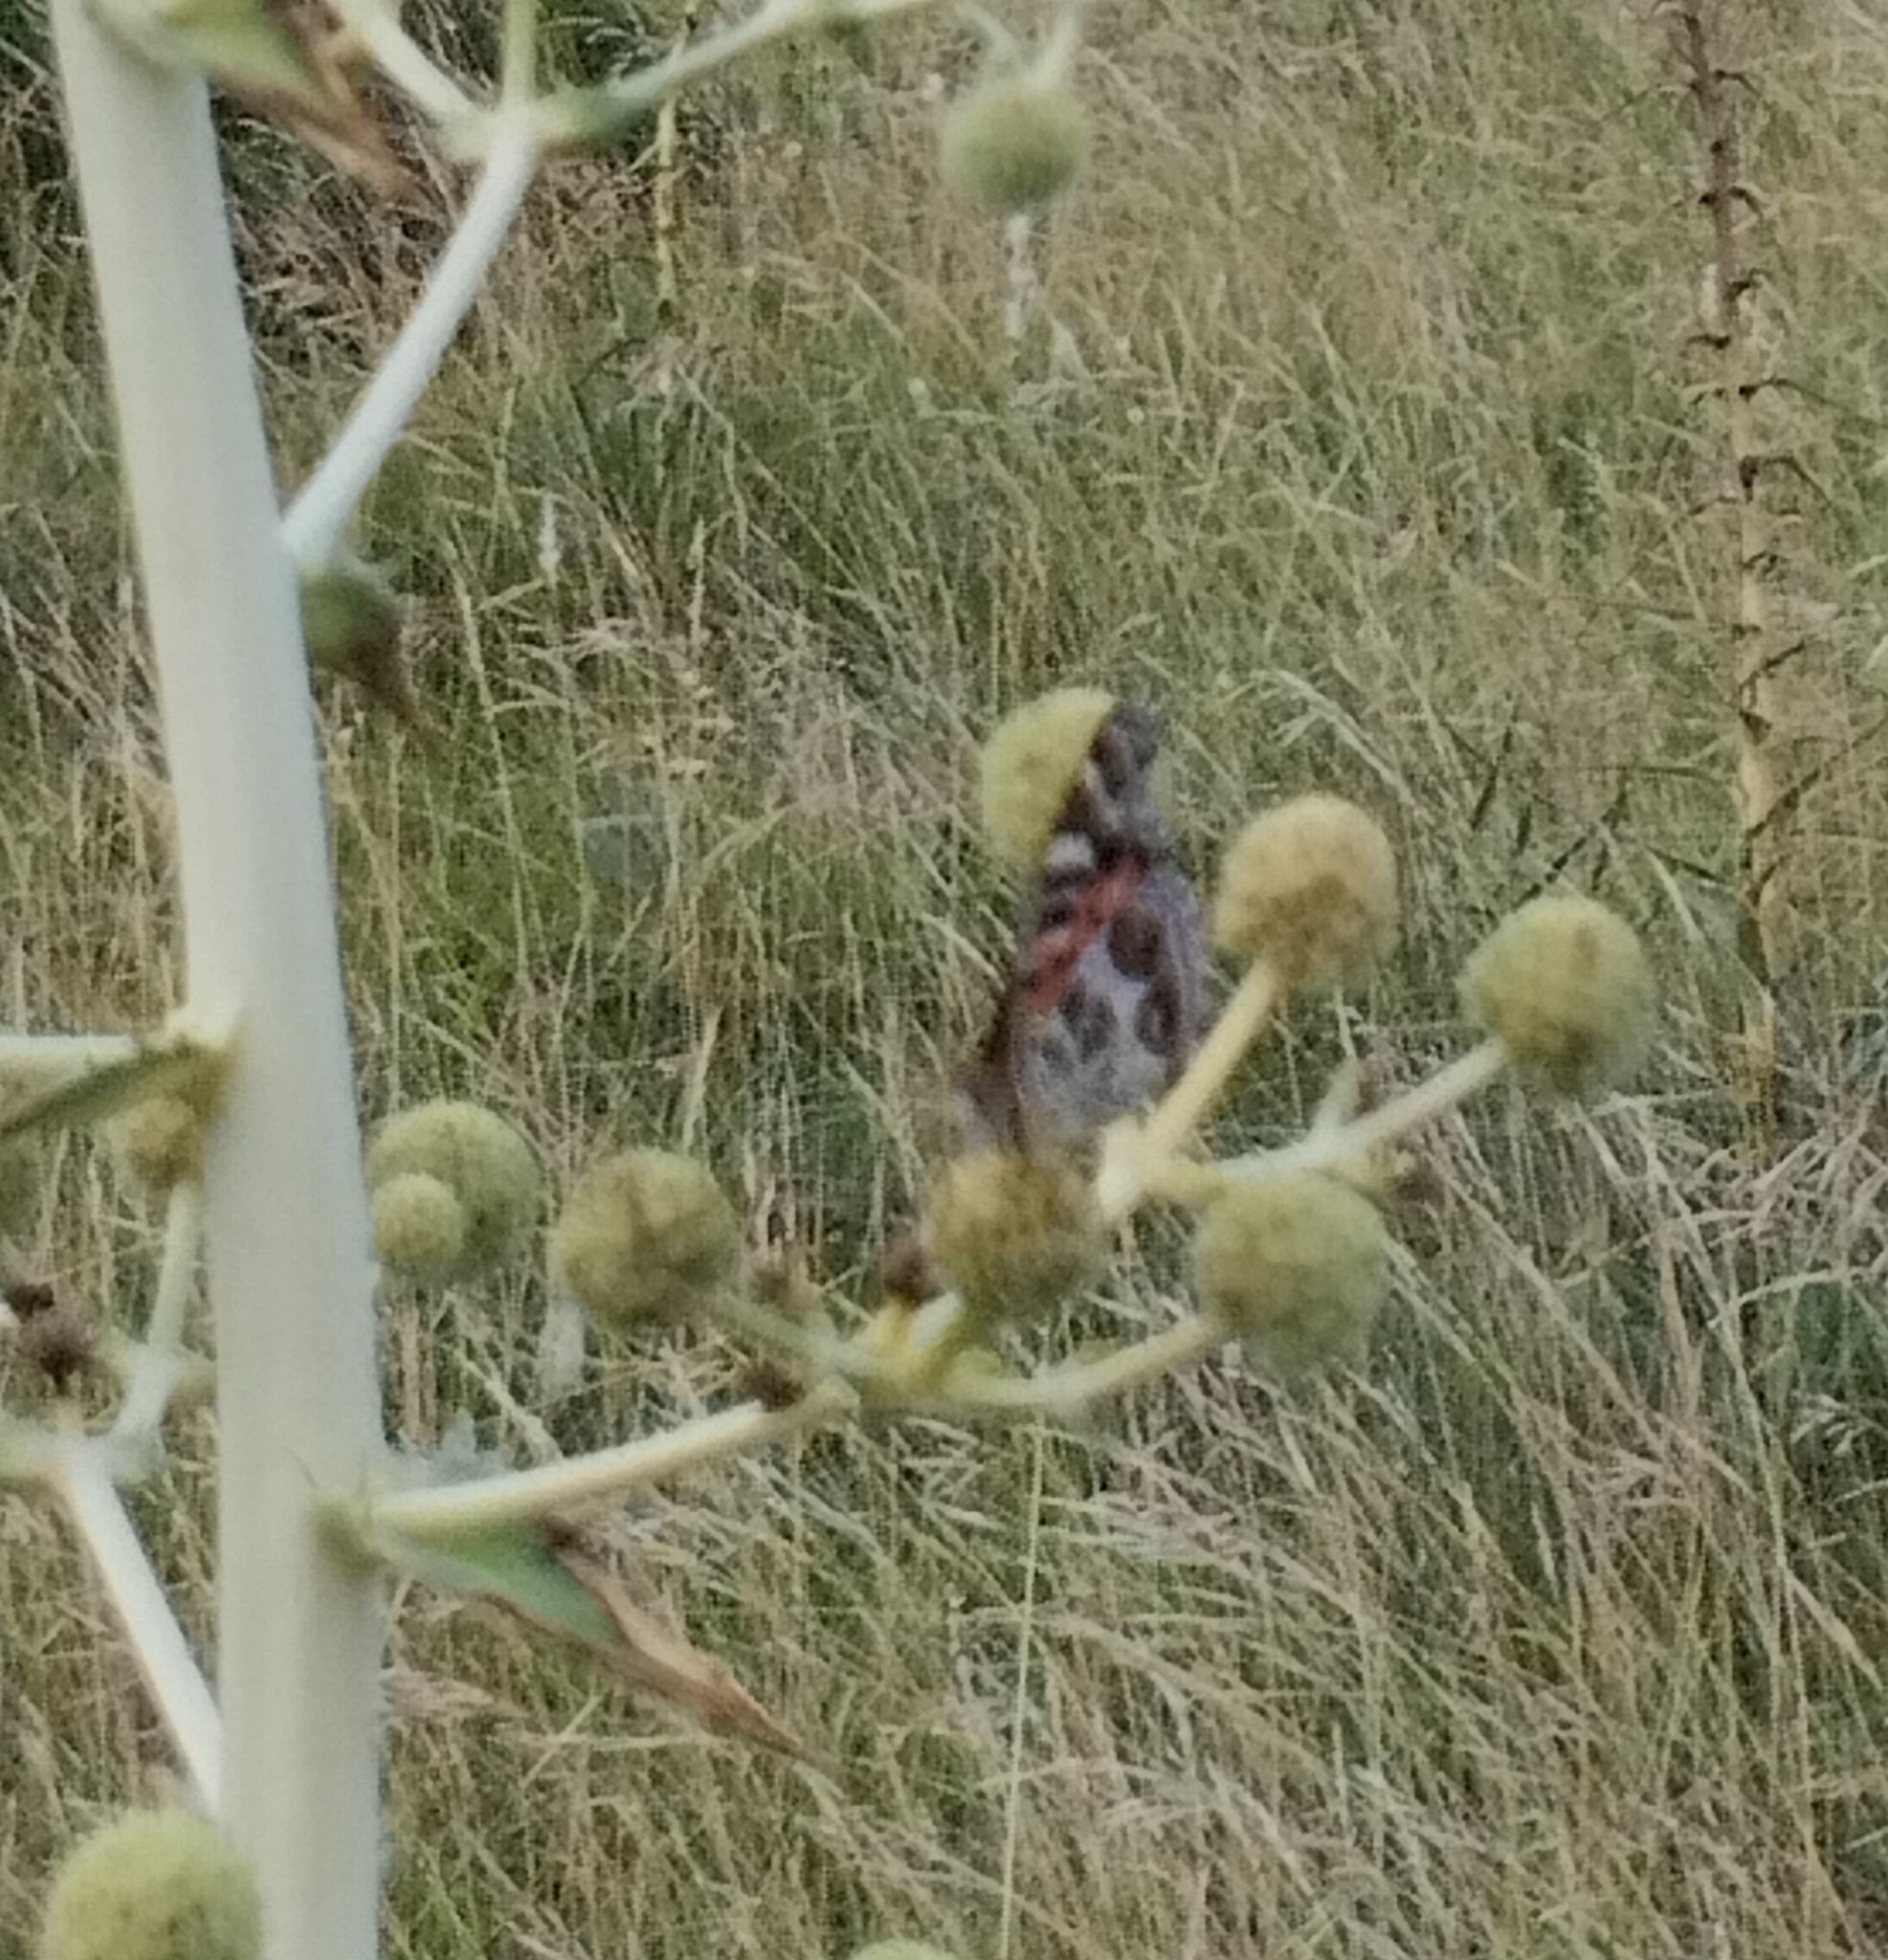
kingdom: Animalia
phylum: Arthropoda
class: Insecta
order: Lepidoptera
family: Nymphalidae
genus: Vanessa
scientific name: Vanessa braziliensis
